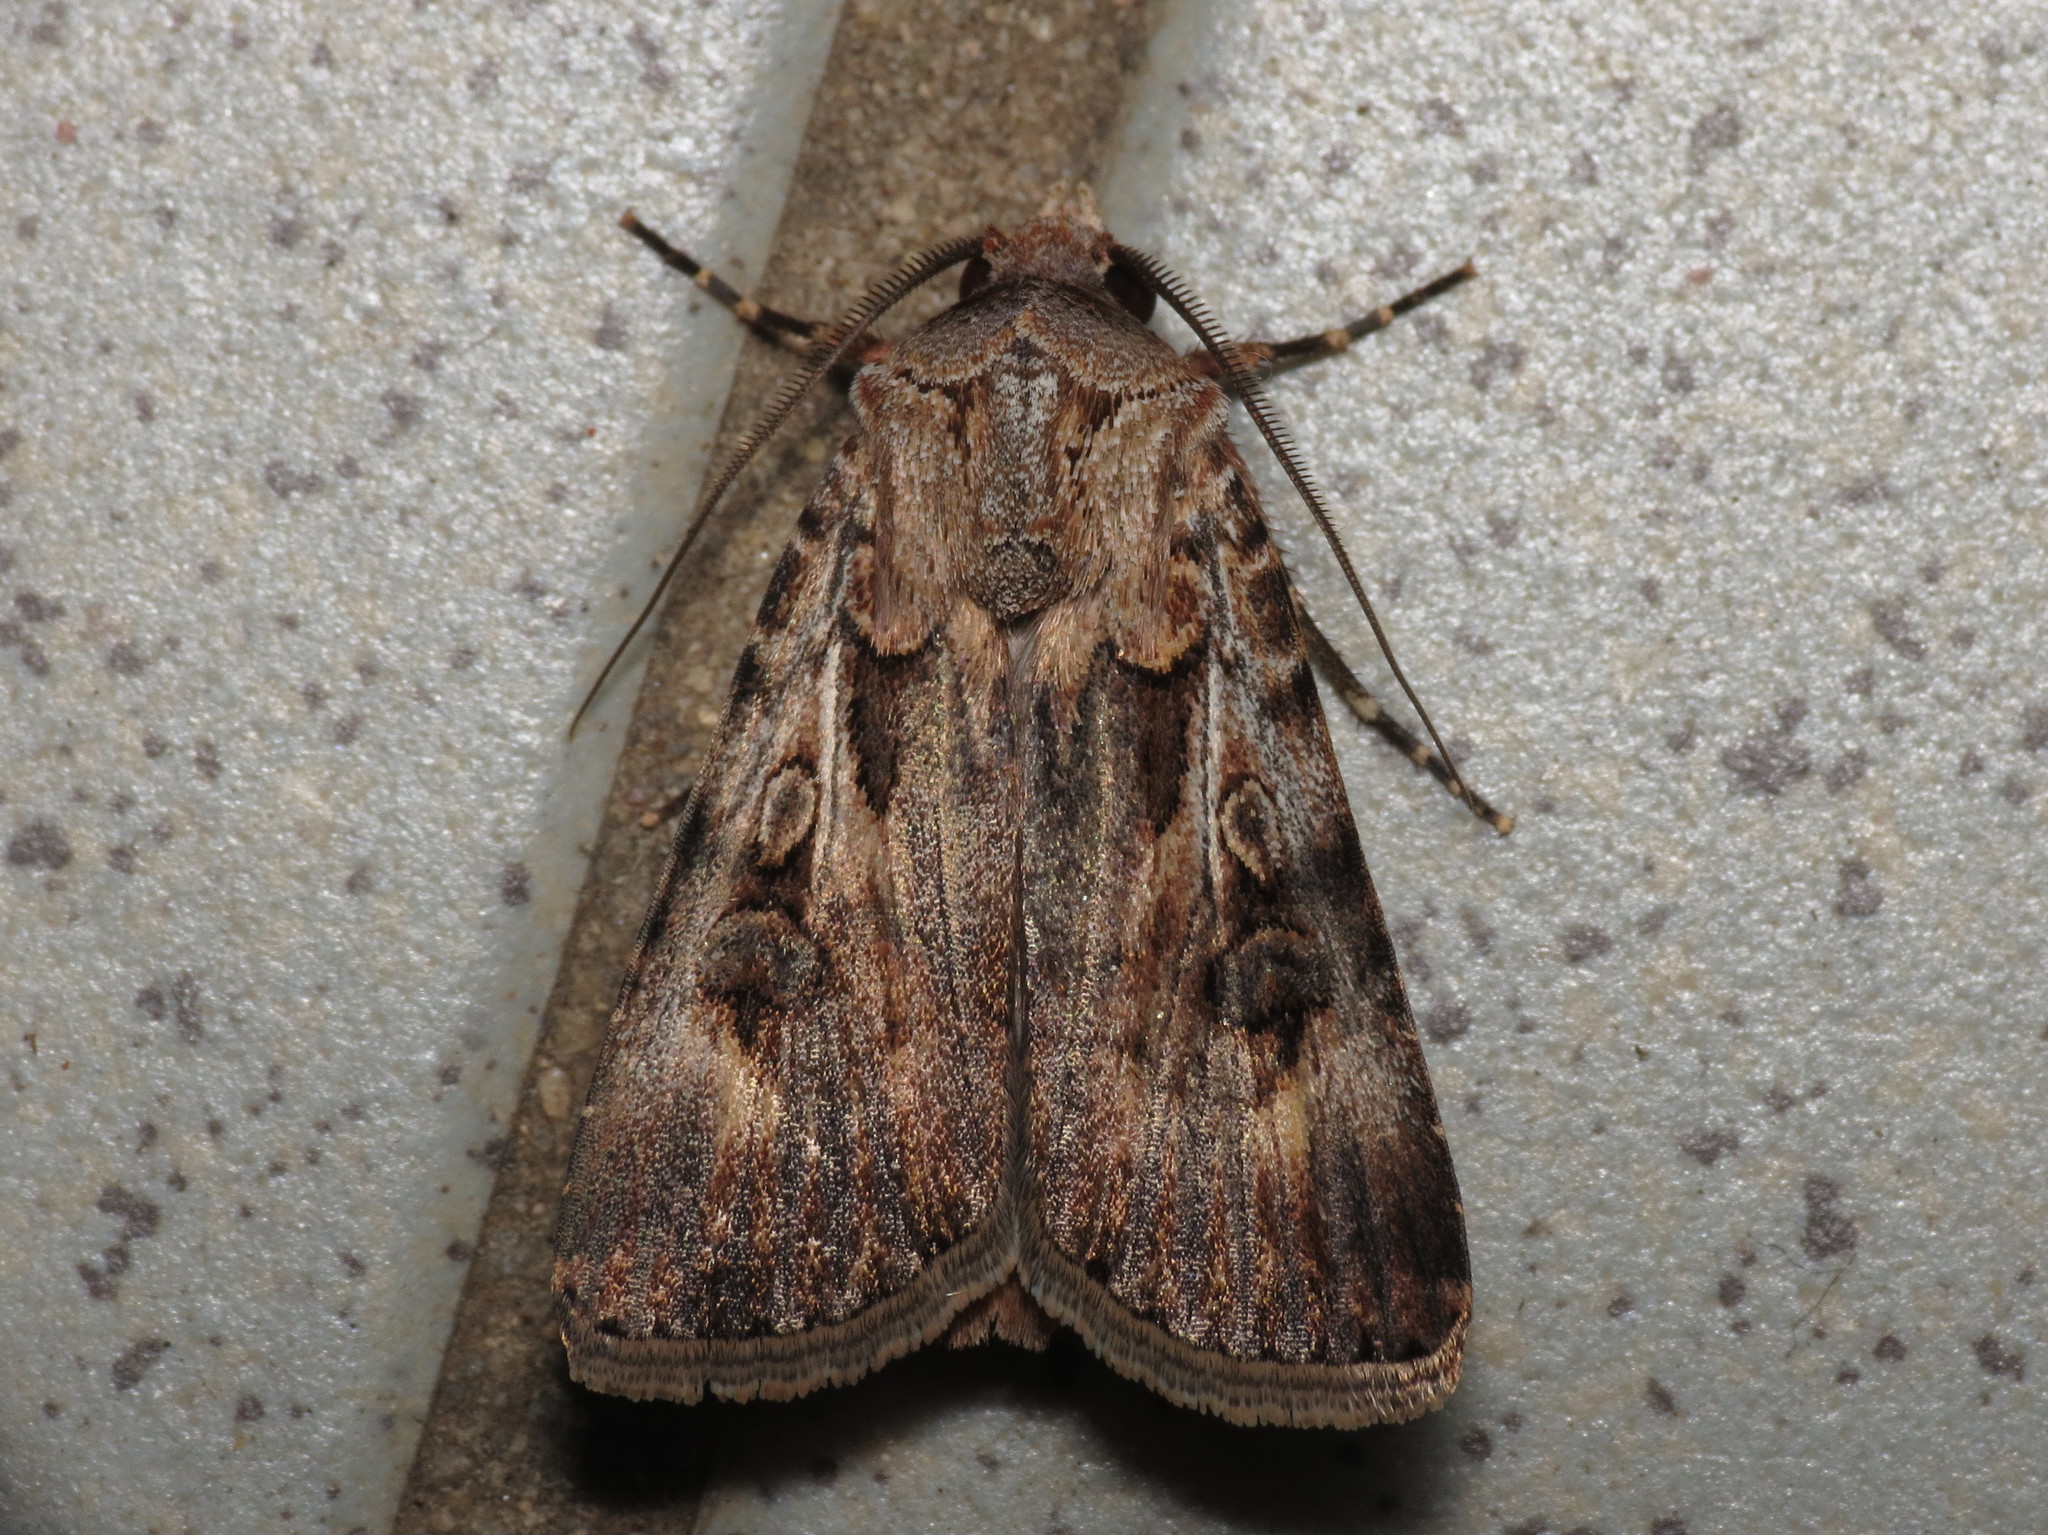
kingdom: Animalia
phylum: Arthropoda
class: Insecta
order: Lepidoptera
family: Noctuidae
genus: Agrotis
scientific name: Agrotis munda
